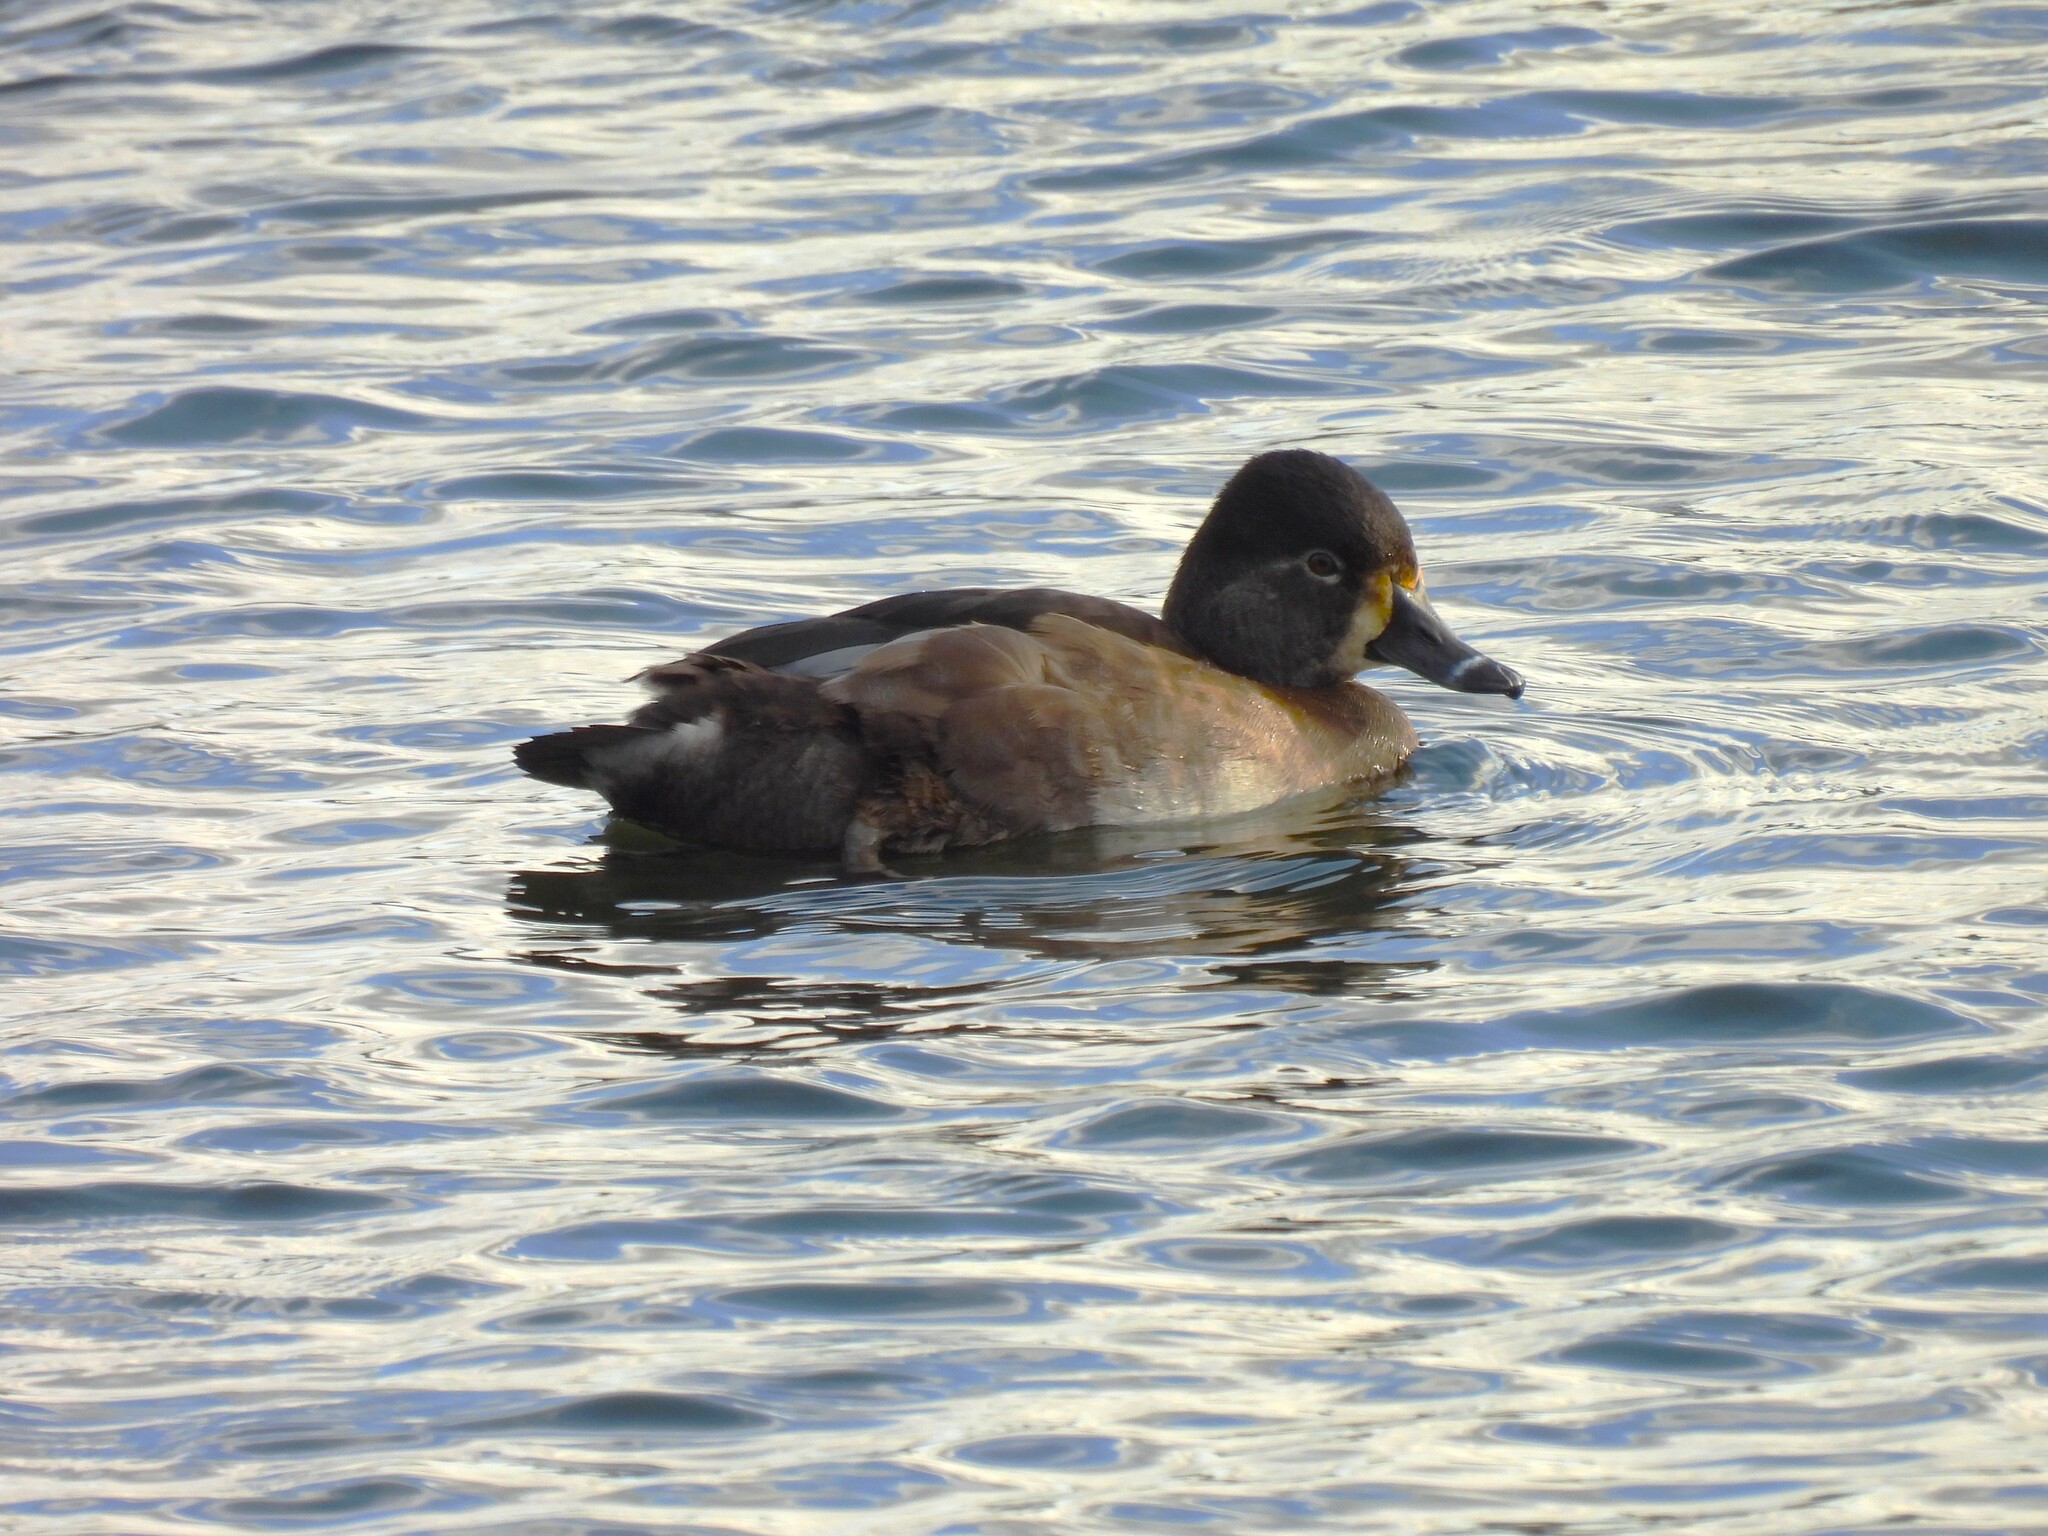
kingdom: Animalia
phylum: Chordata
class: Aves
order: Anseriformes
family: Anatidae
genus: Aythya
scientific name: Aythya collaris
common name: Ring-necked duck
